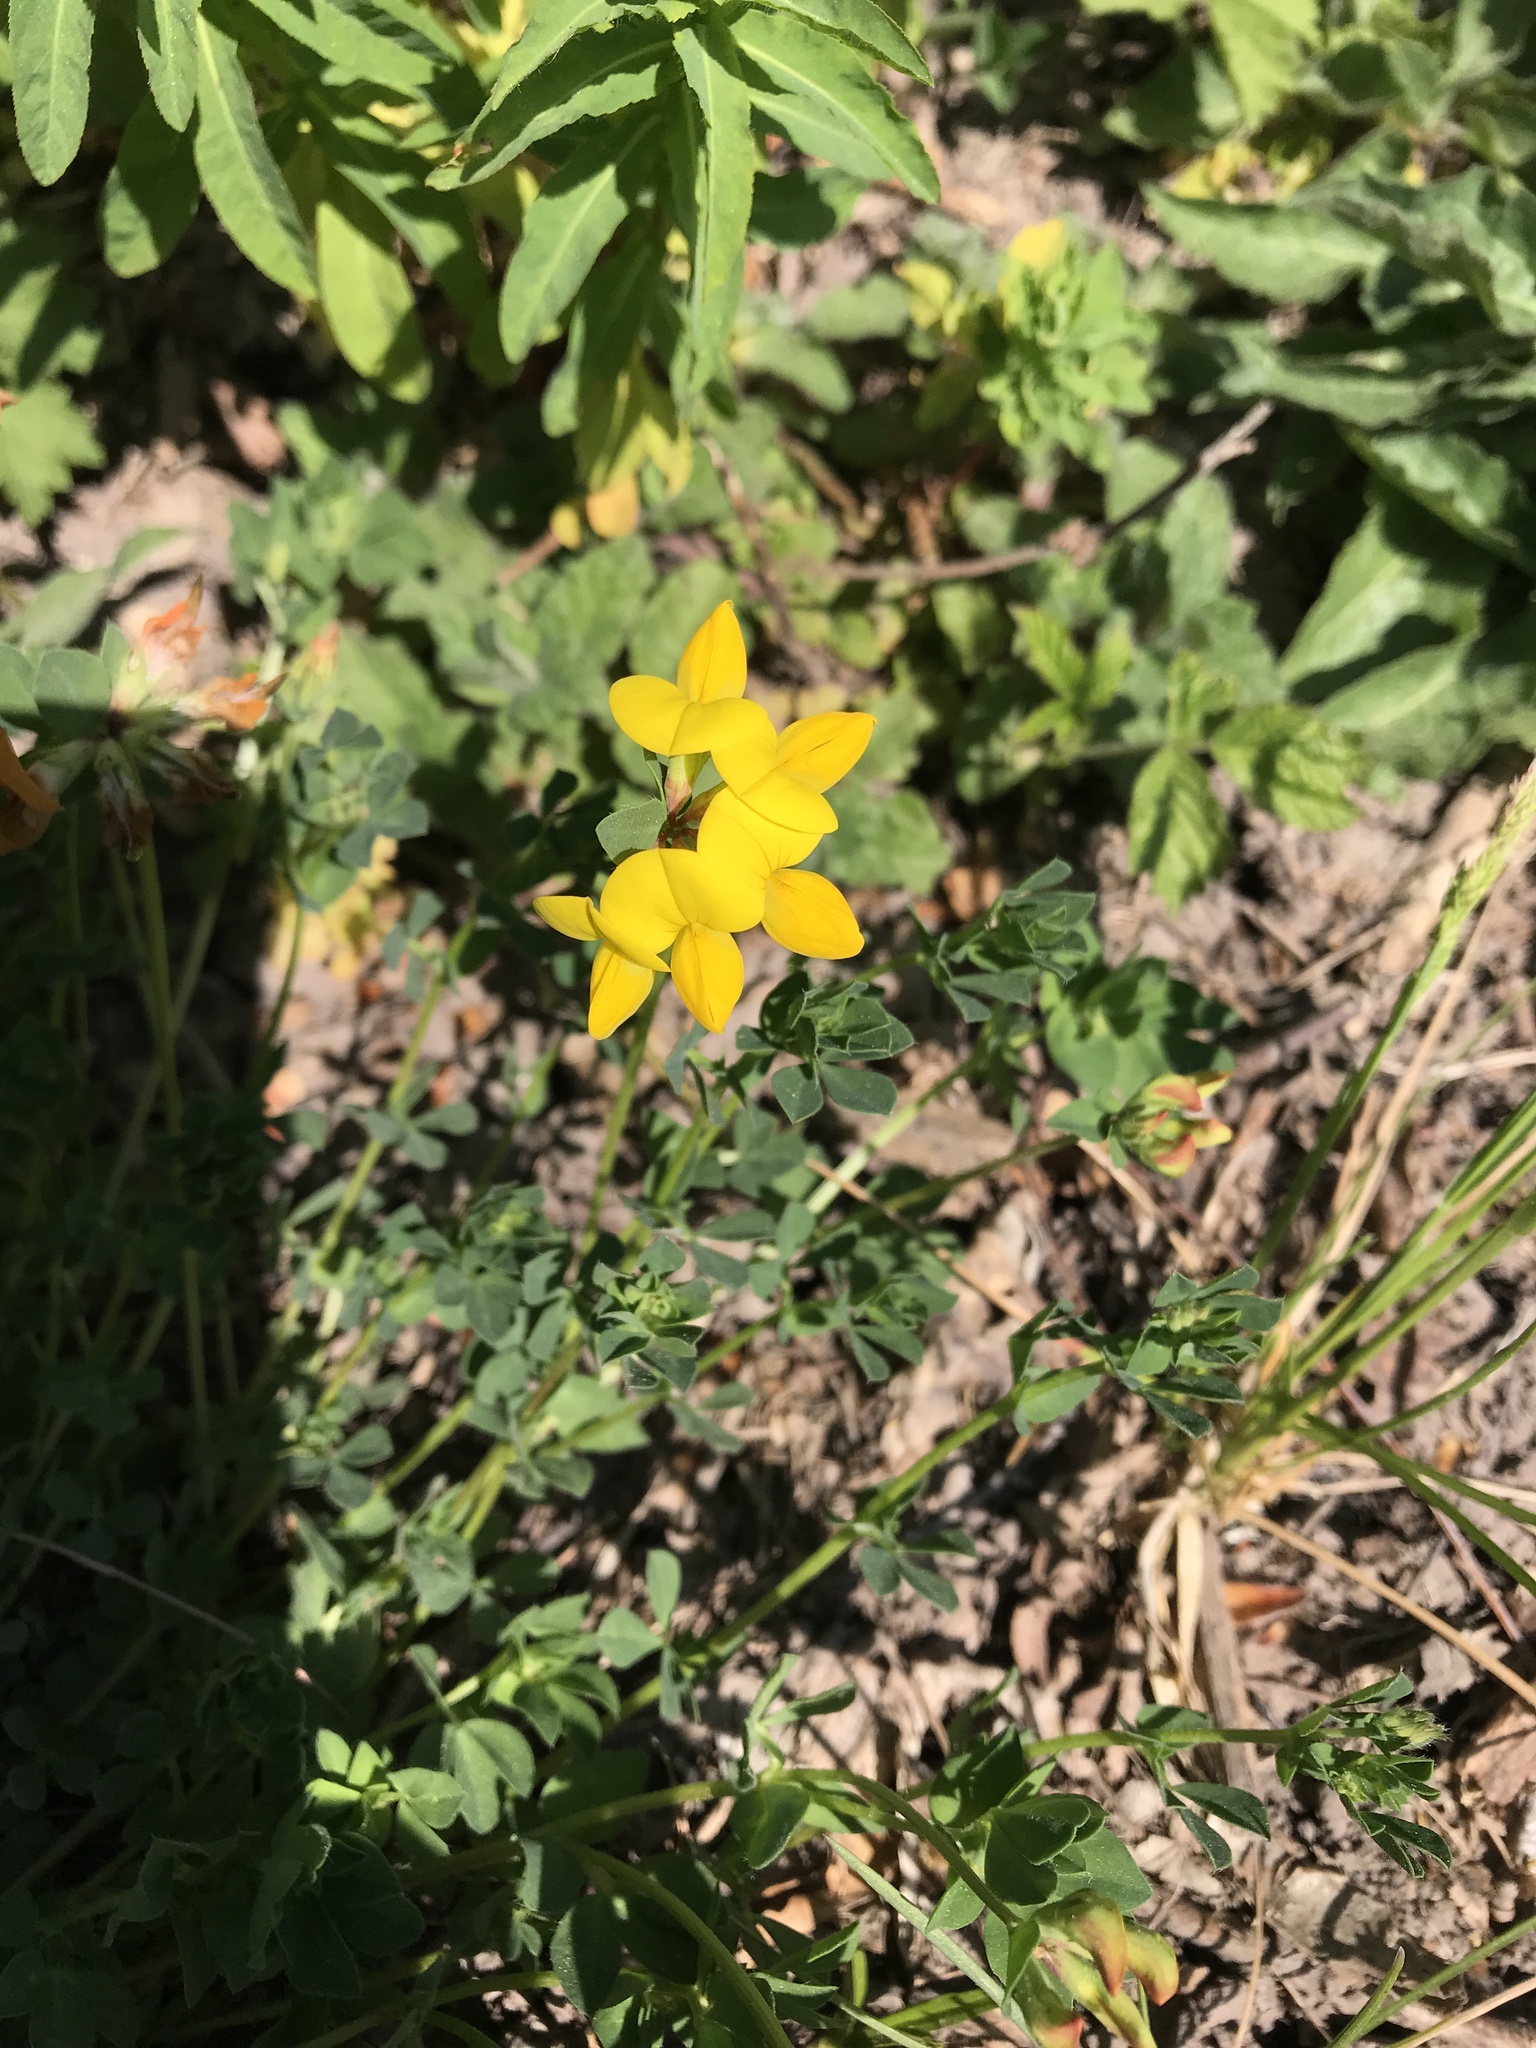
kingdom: Plantae
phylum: Tracheophyta
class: Magnoliopsida
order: Fabales
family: Fabaceae
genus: Lotus
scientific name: Lotus corniculatus
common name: Common bird's-foot-trefoil
